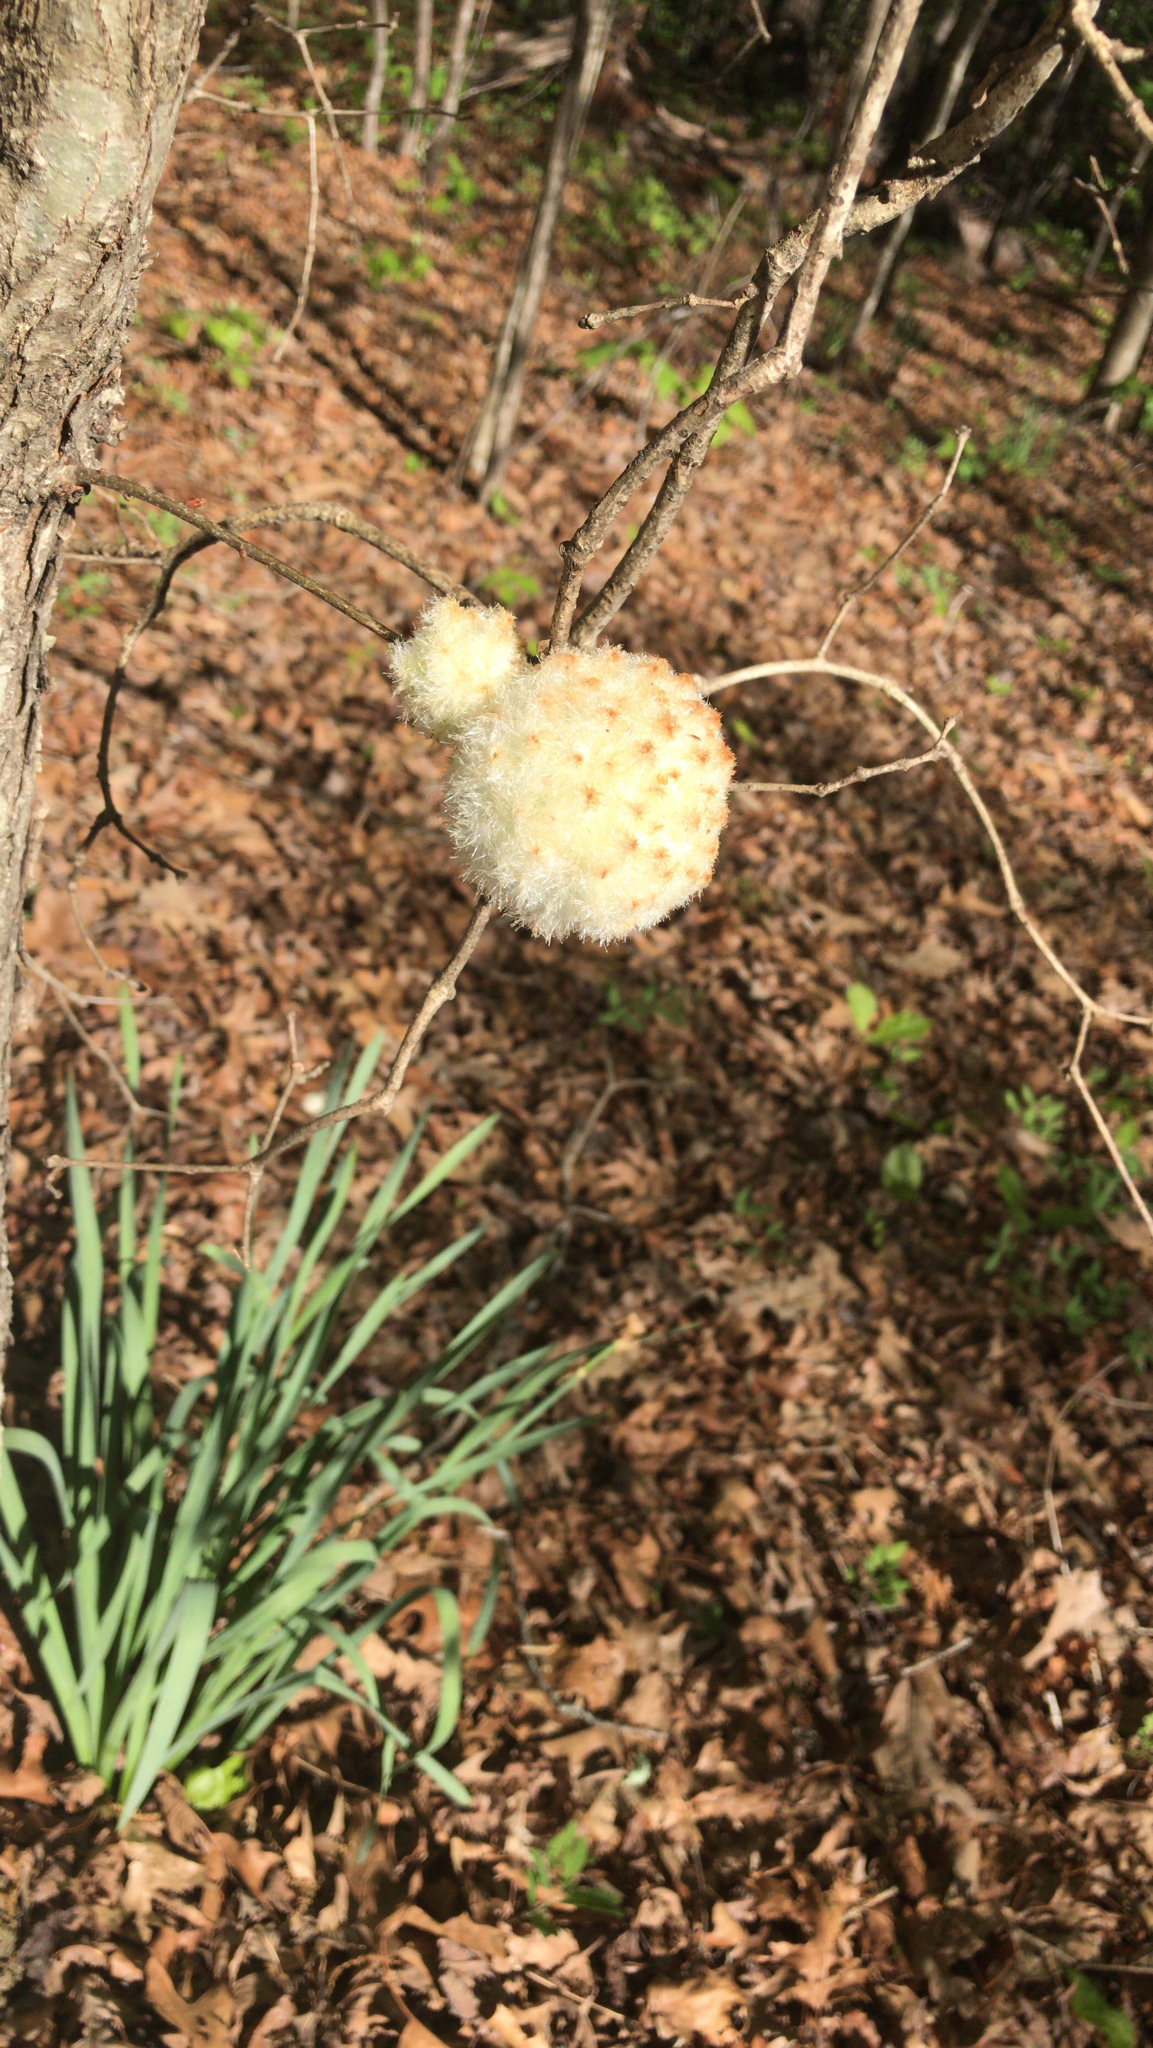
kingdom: Animalia
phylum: Arthropoda
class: Insecta
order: Hymenoptera
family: Cynipidae
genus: Callirhytis
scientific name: Callirhytis
